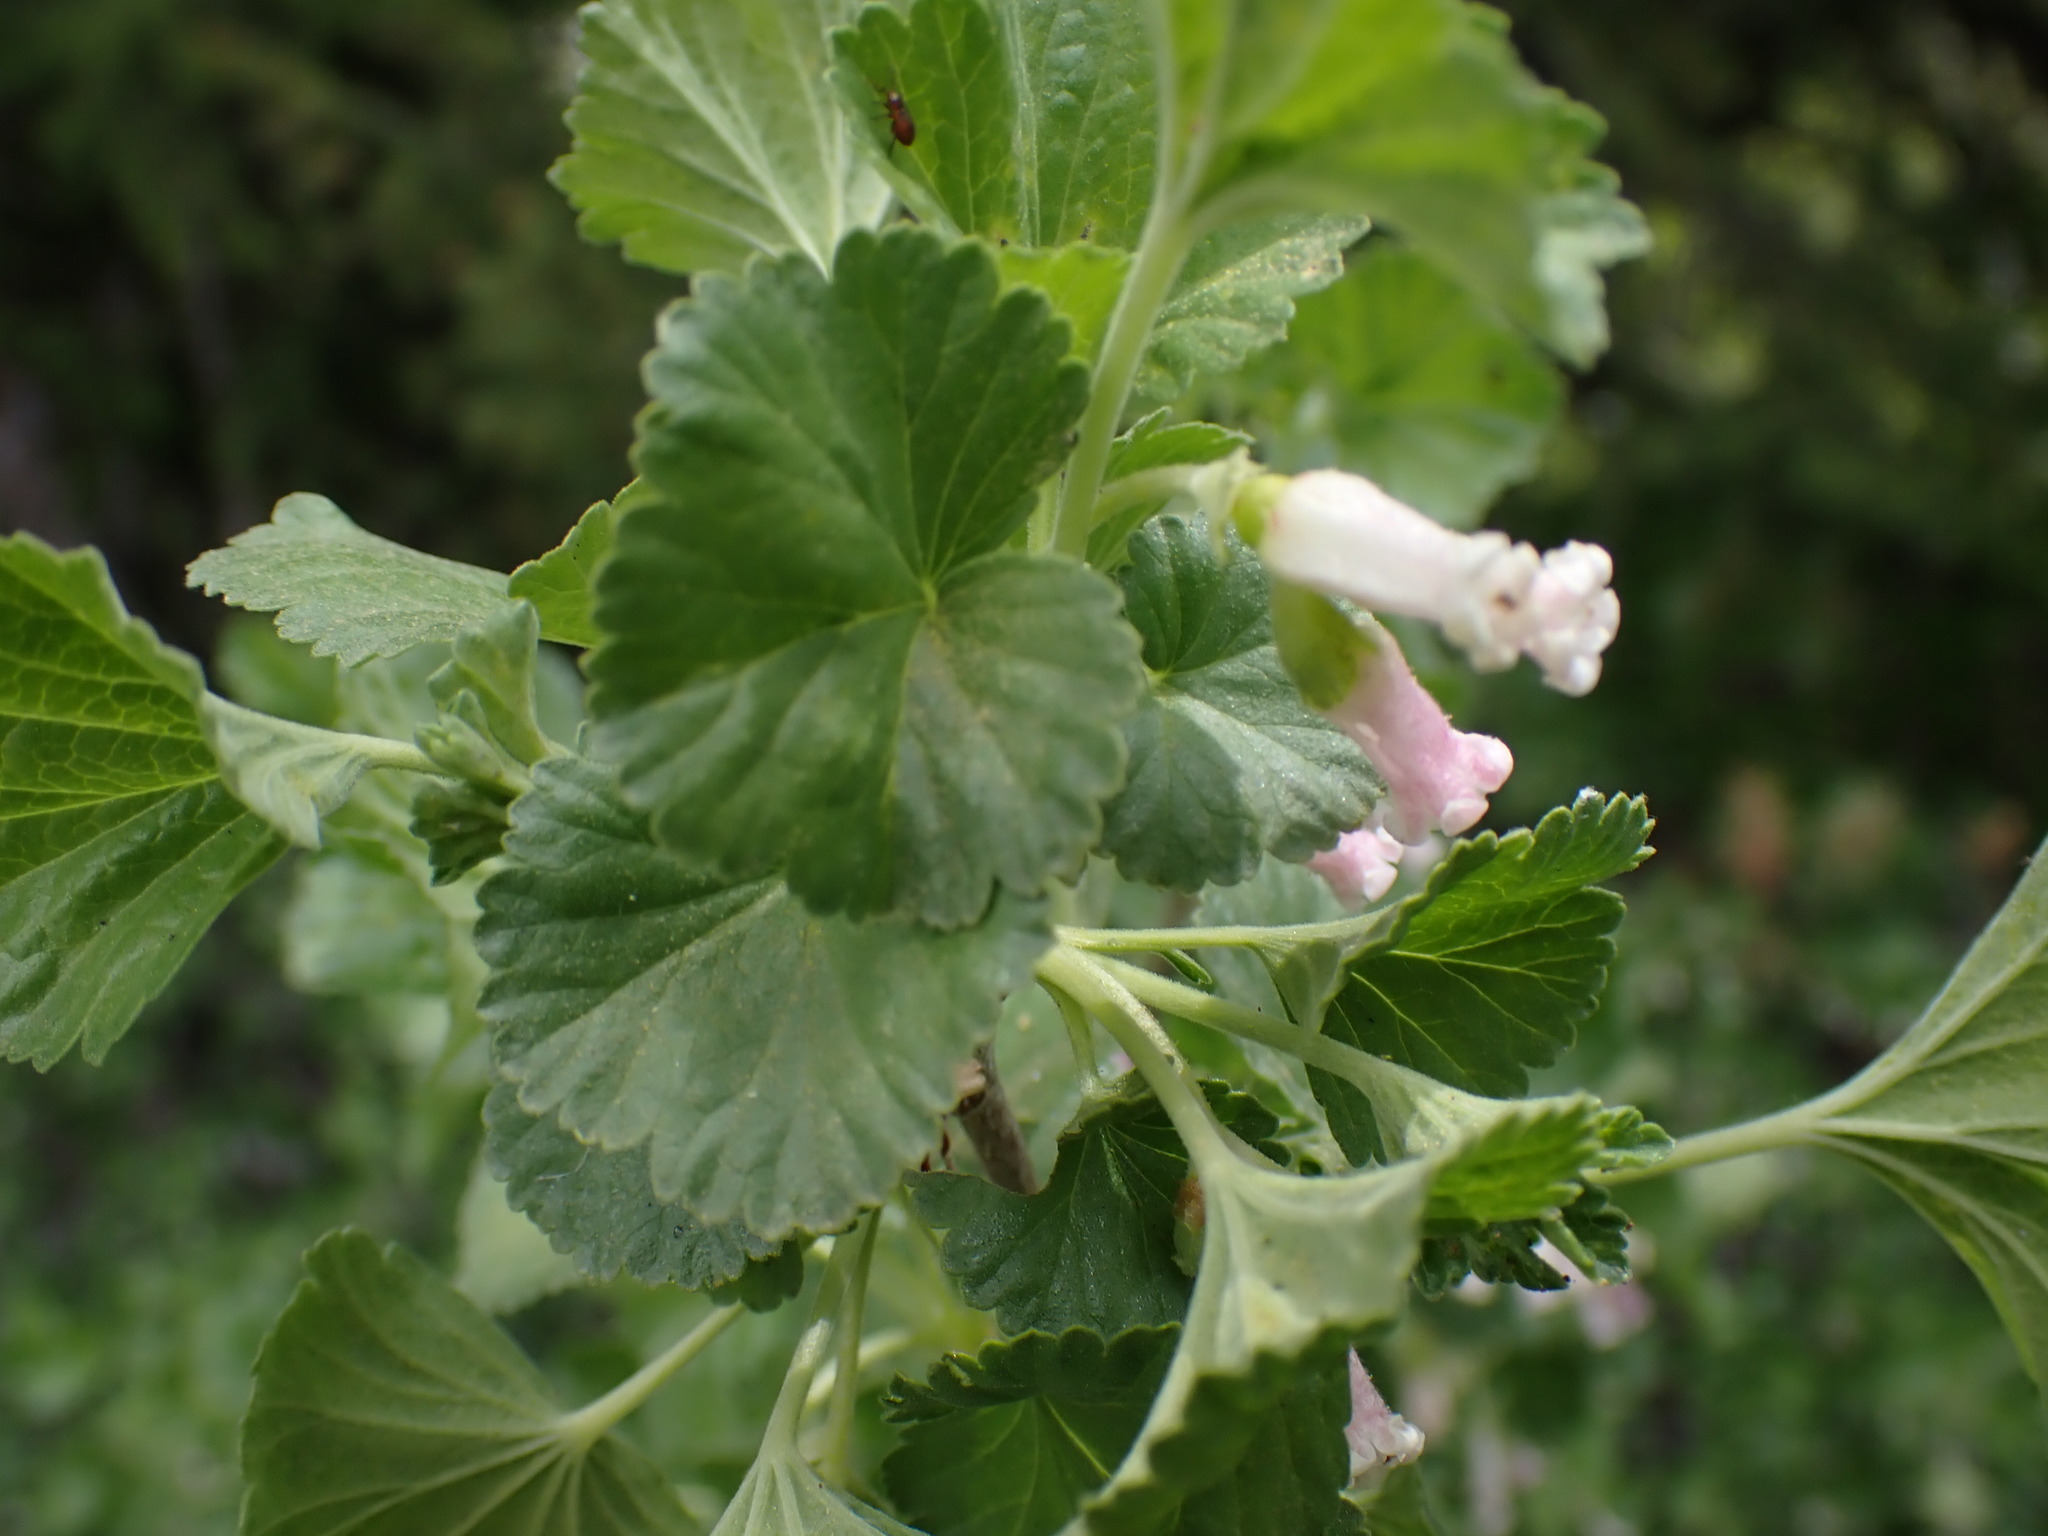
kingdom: Plantae
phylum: Tracheophyta
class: Magnoliopsida
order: Saxifragales
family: Grossulariaceae
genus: Ribes
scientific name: Ribes cereum
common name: Wax currant
